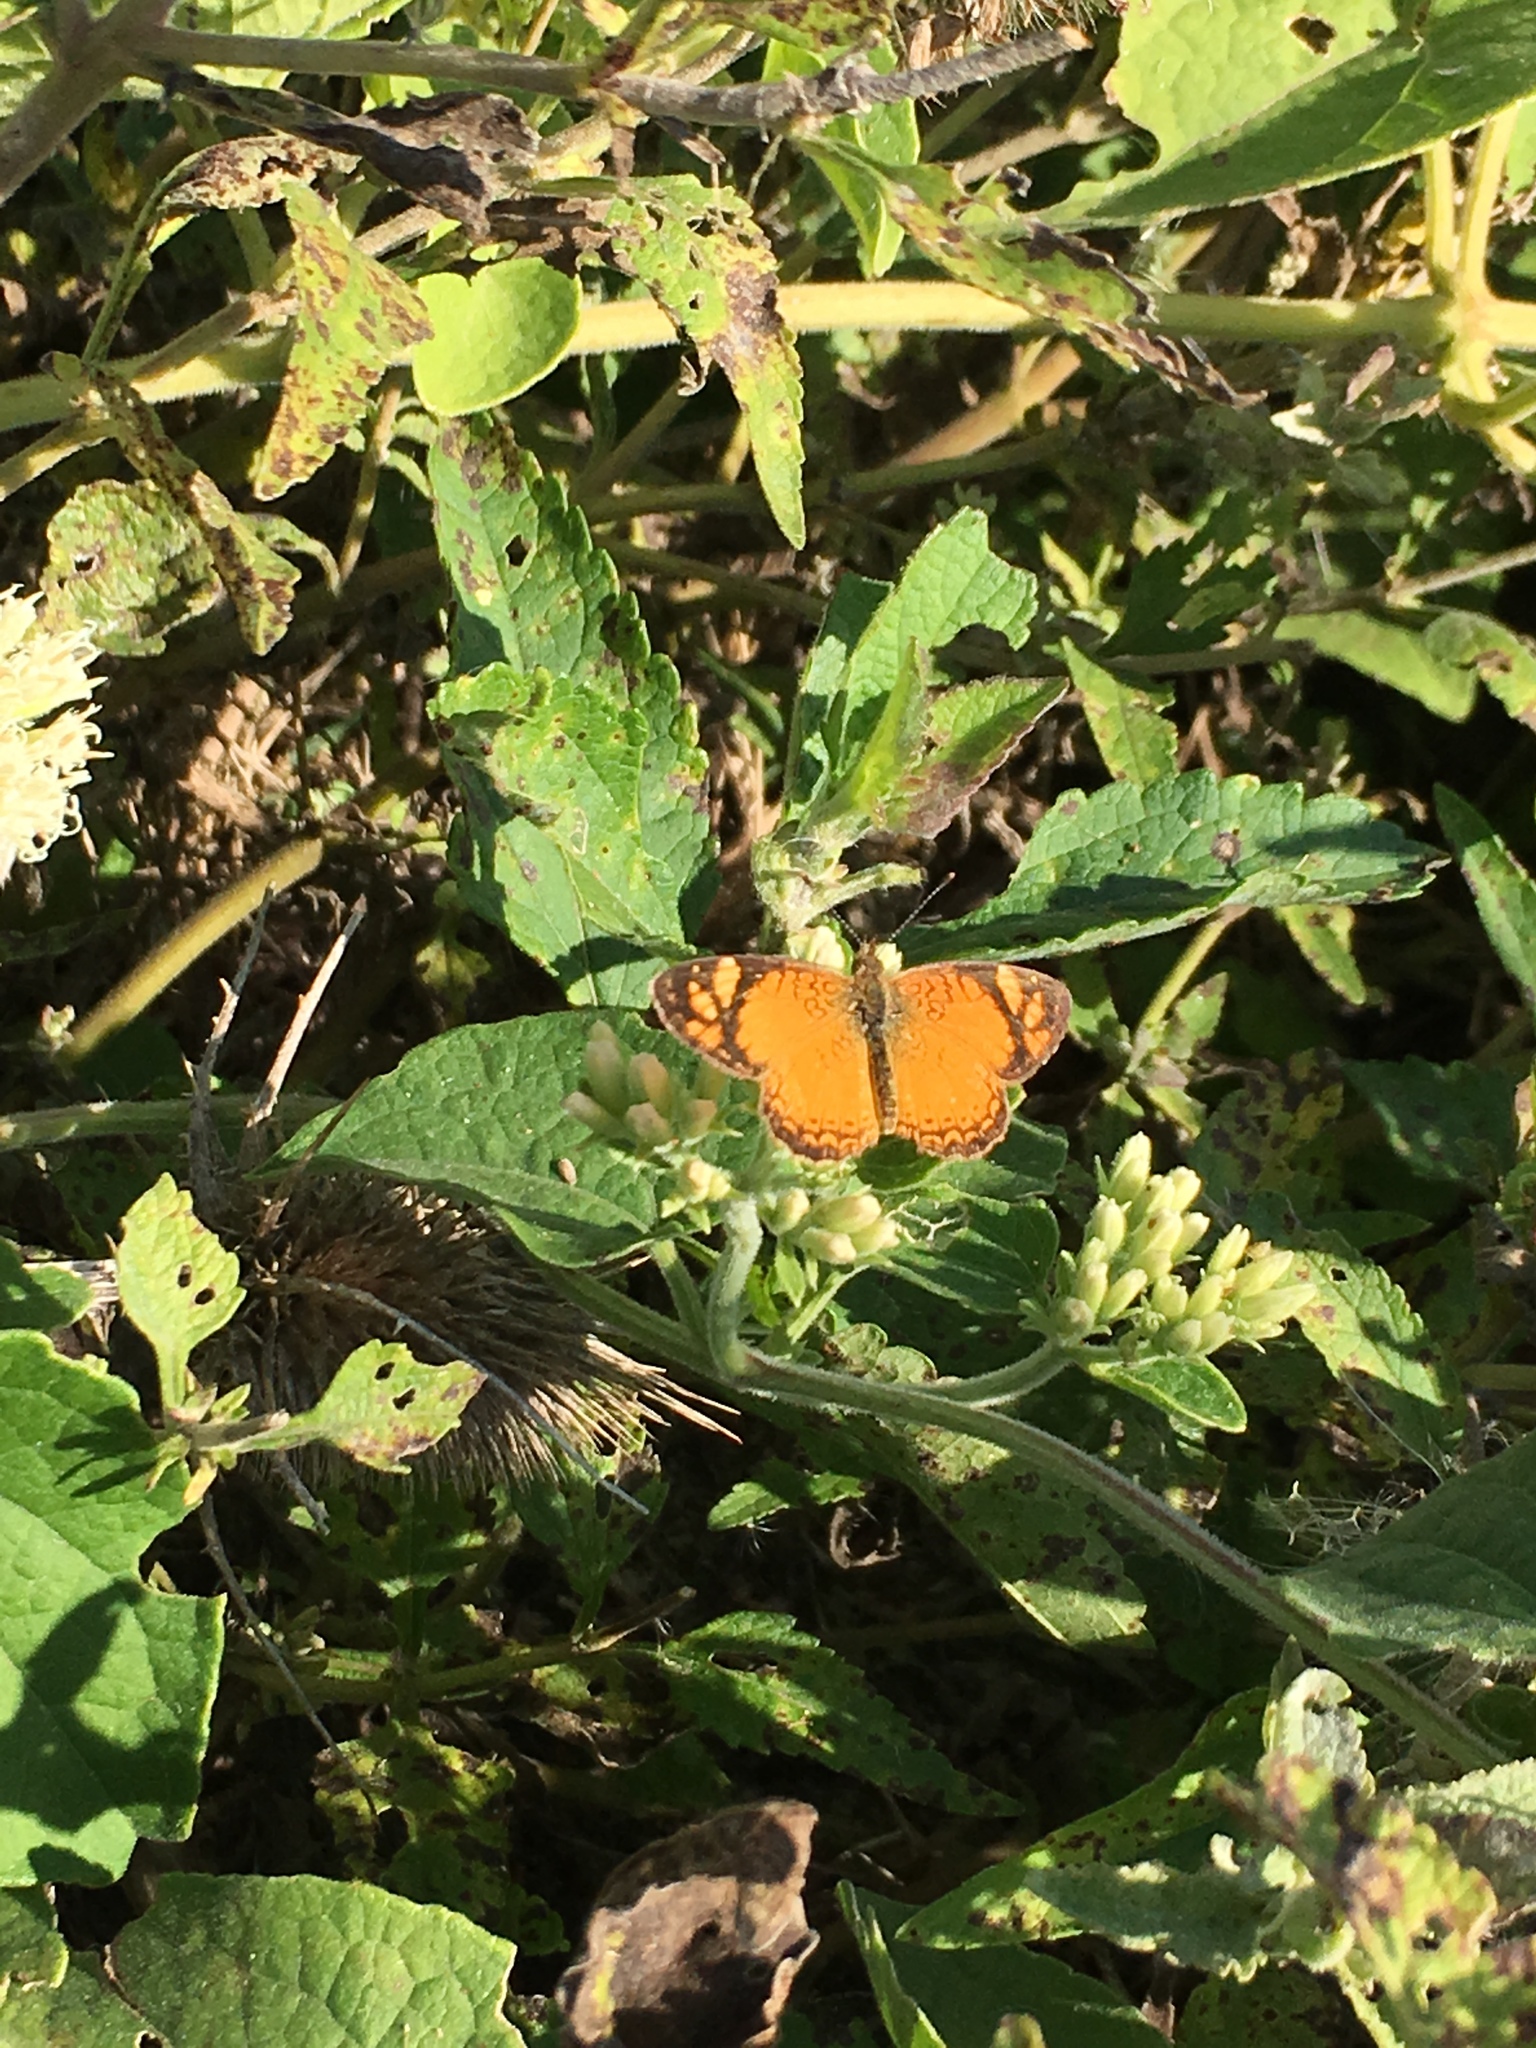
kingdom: Animalia
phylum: Arthropoda
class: Insecta
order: Lepidoptera
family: Nymphalidae
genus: Tegosa
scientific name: Tegosa orobia
